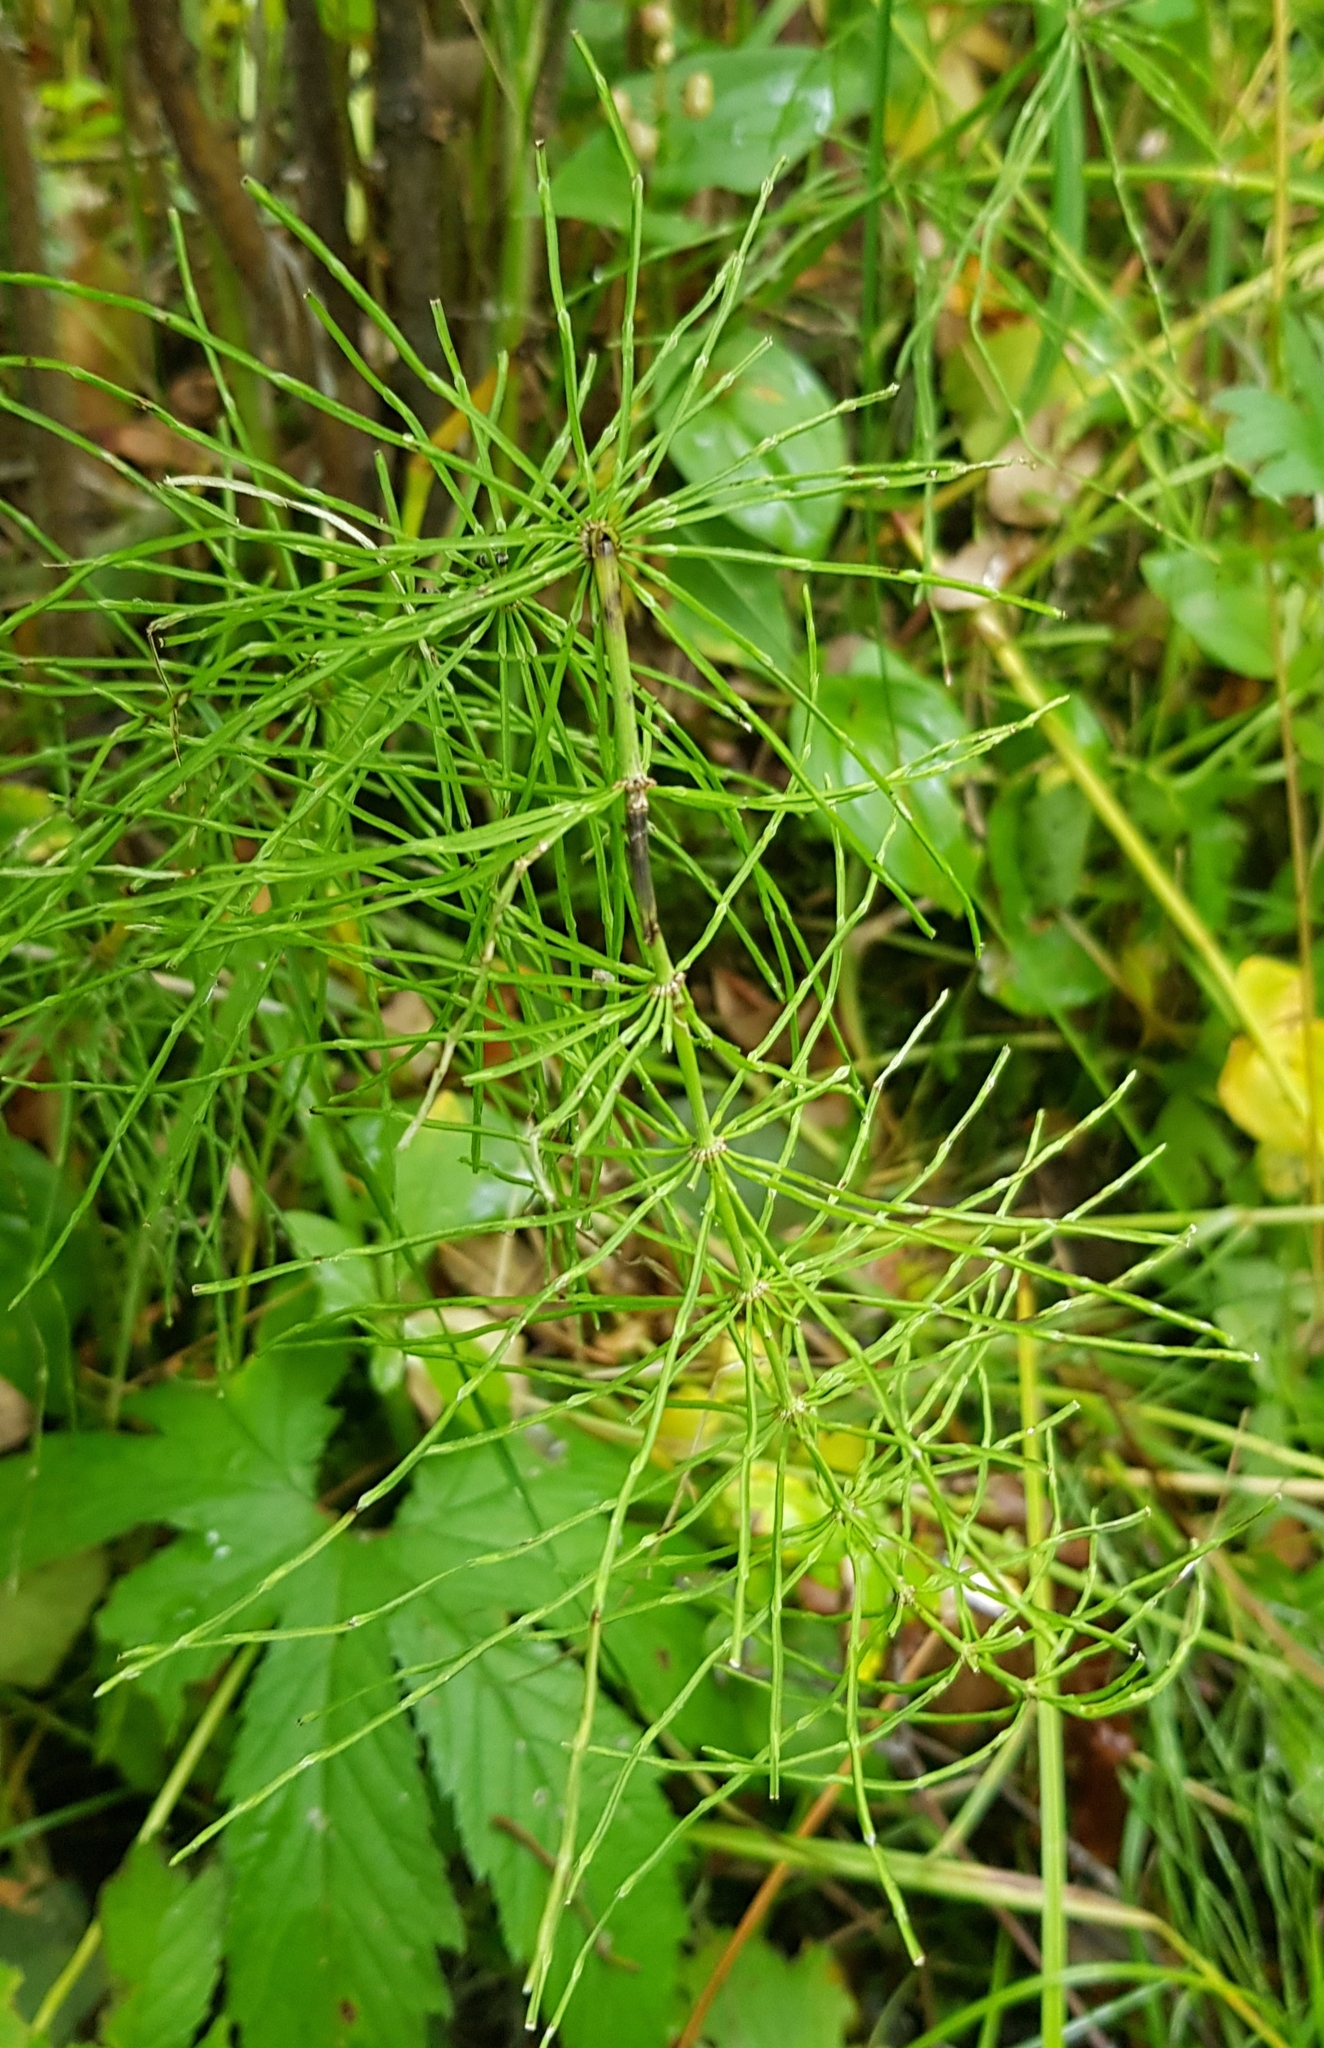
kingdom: Plantae
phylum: Tracheophyta
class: Polypodiopsida
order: Equisetales
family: Equisetaceae
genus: Equisetum
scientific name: Equisetum pratense
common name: Meadow horsetail
